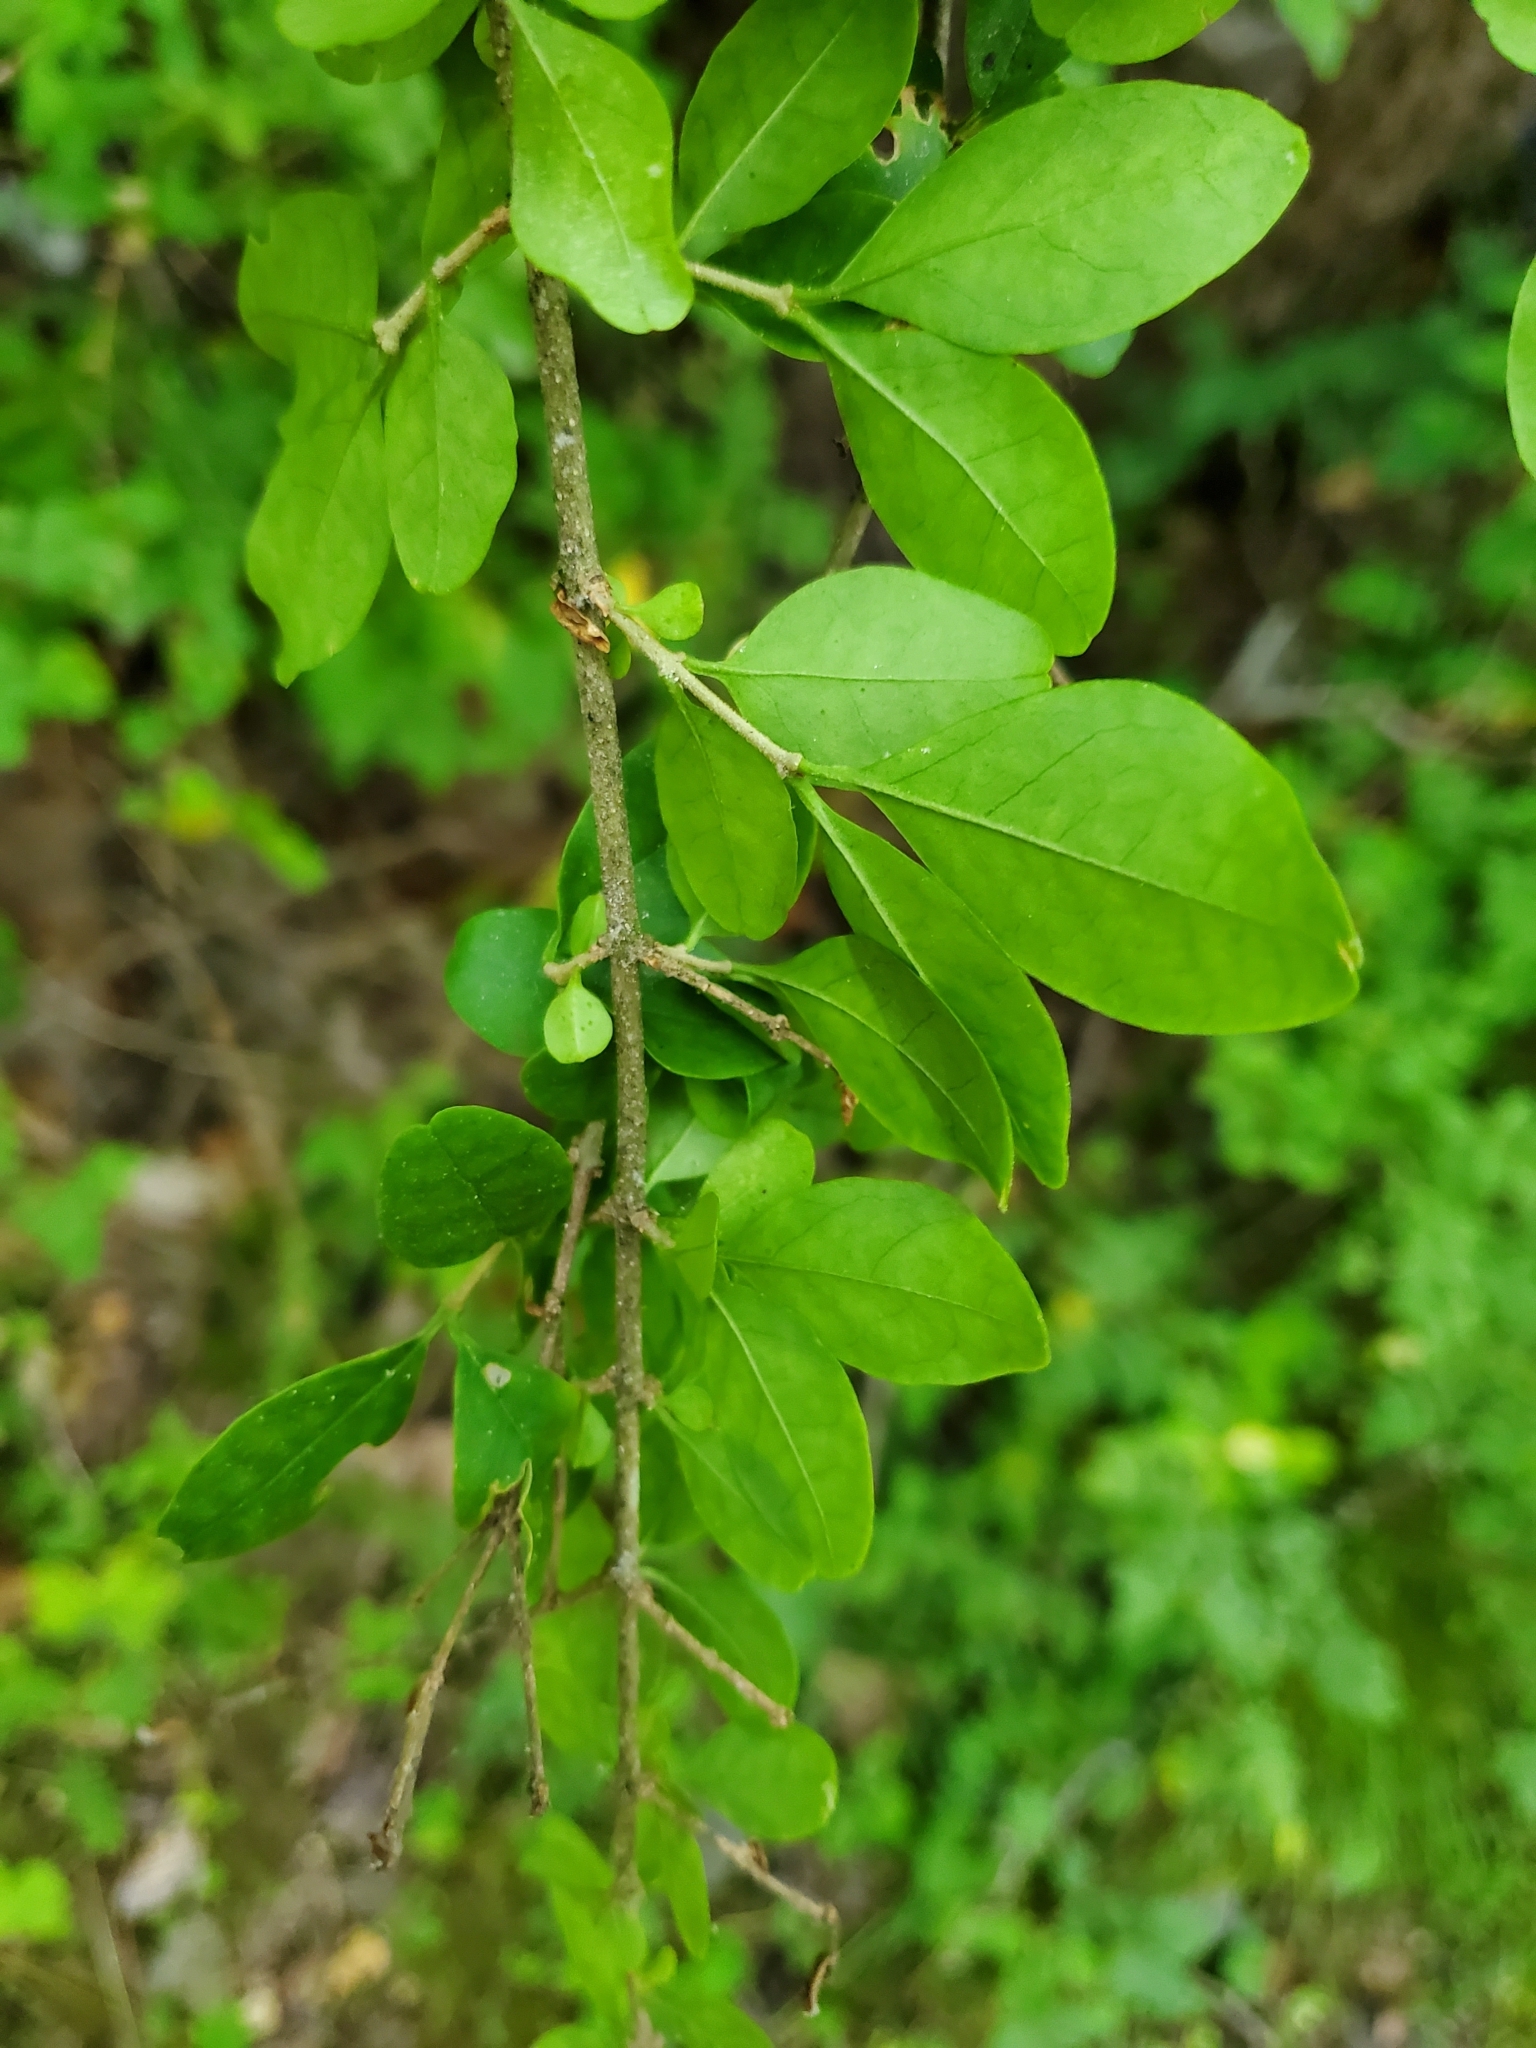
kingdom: Plantae
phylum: Tracheophyta
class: Magnoliopsida
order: Lamiales
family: Oleaceae
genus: Ligustrum
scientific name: Ligustrum sinense
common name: Chinese privet
